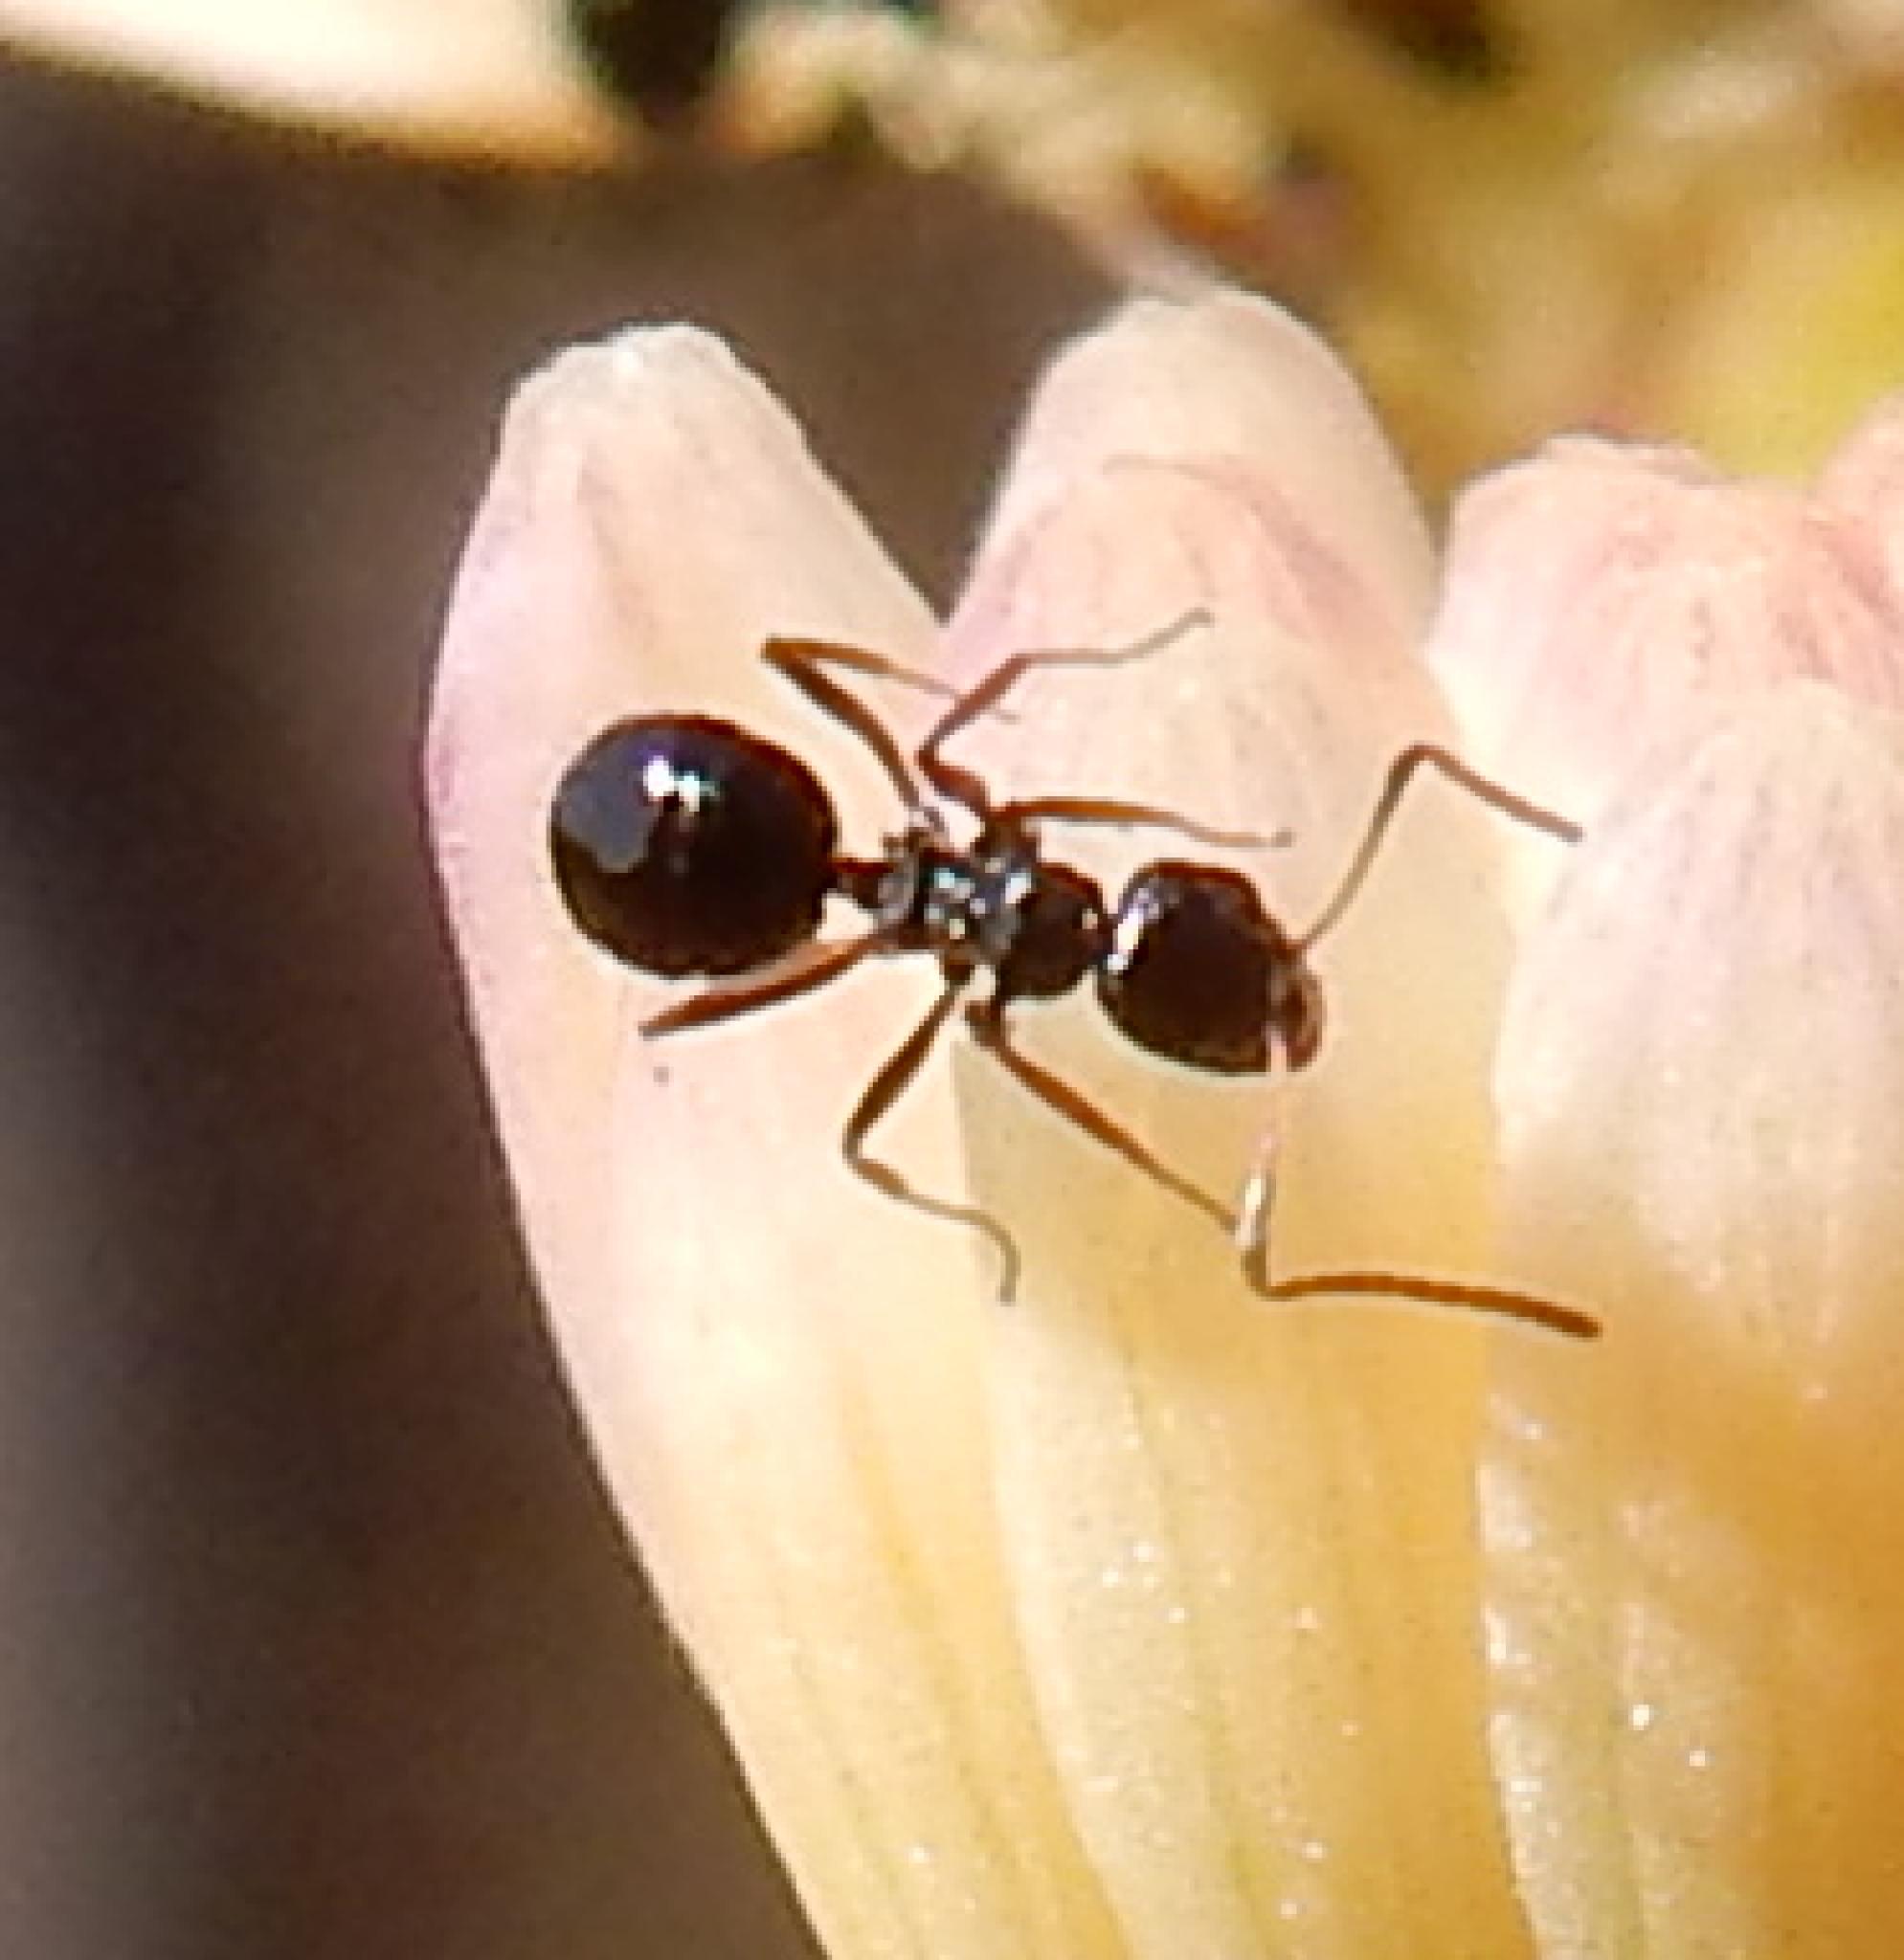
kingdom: Animalia
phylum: Arthropoda
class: Insecta
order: Hymenoptera
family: Formicidae
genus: Lepisiota
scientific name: Lepisiota capensis
